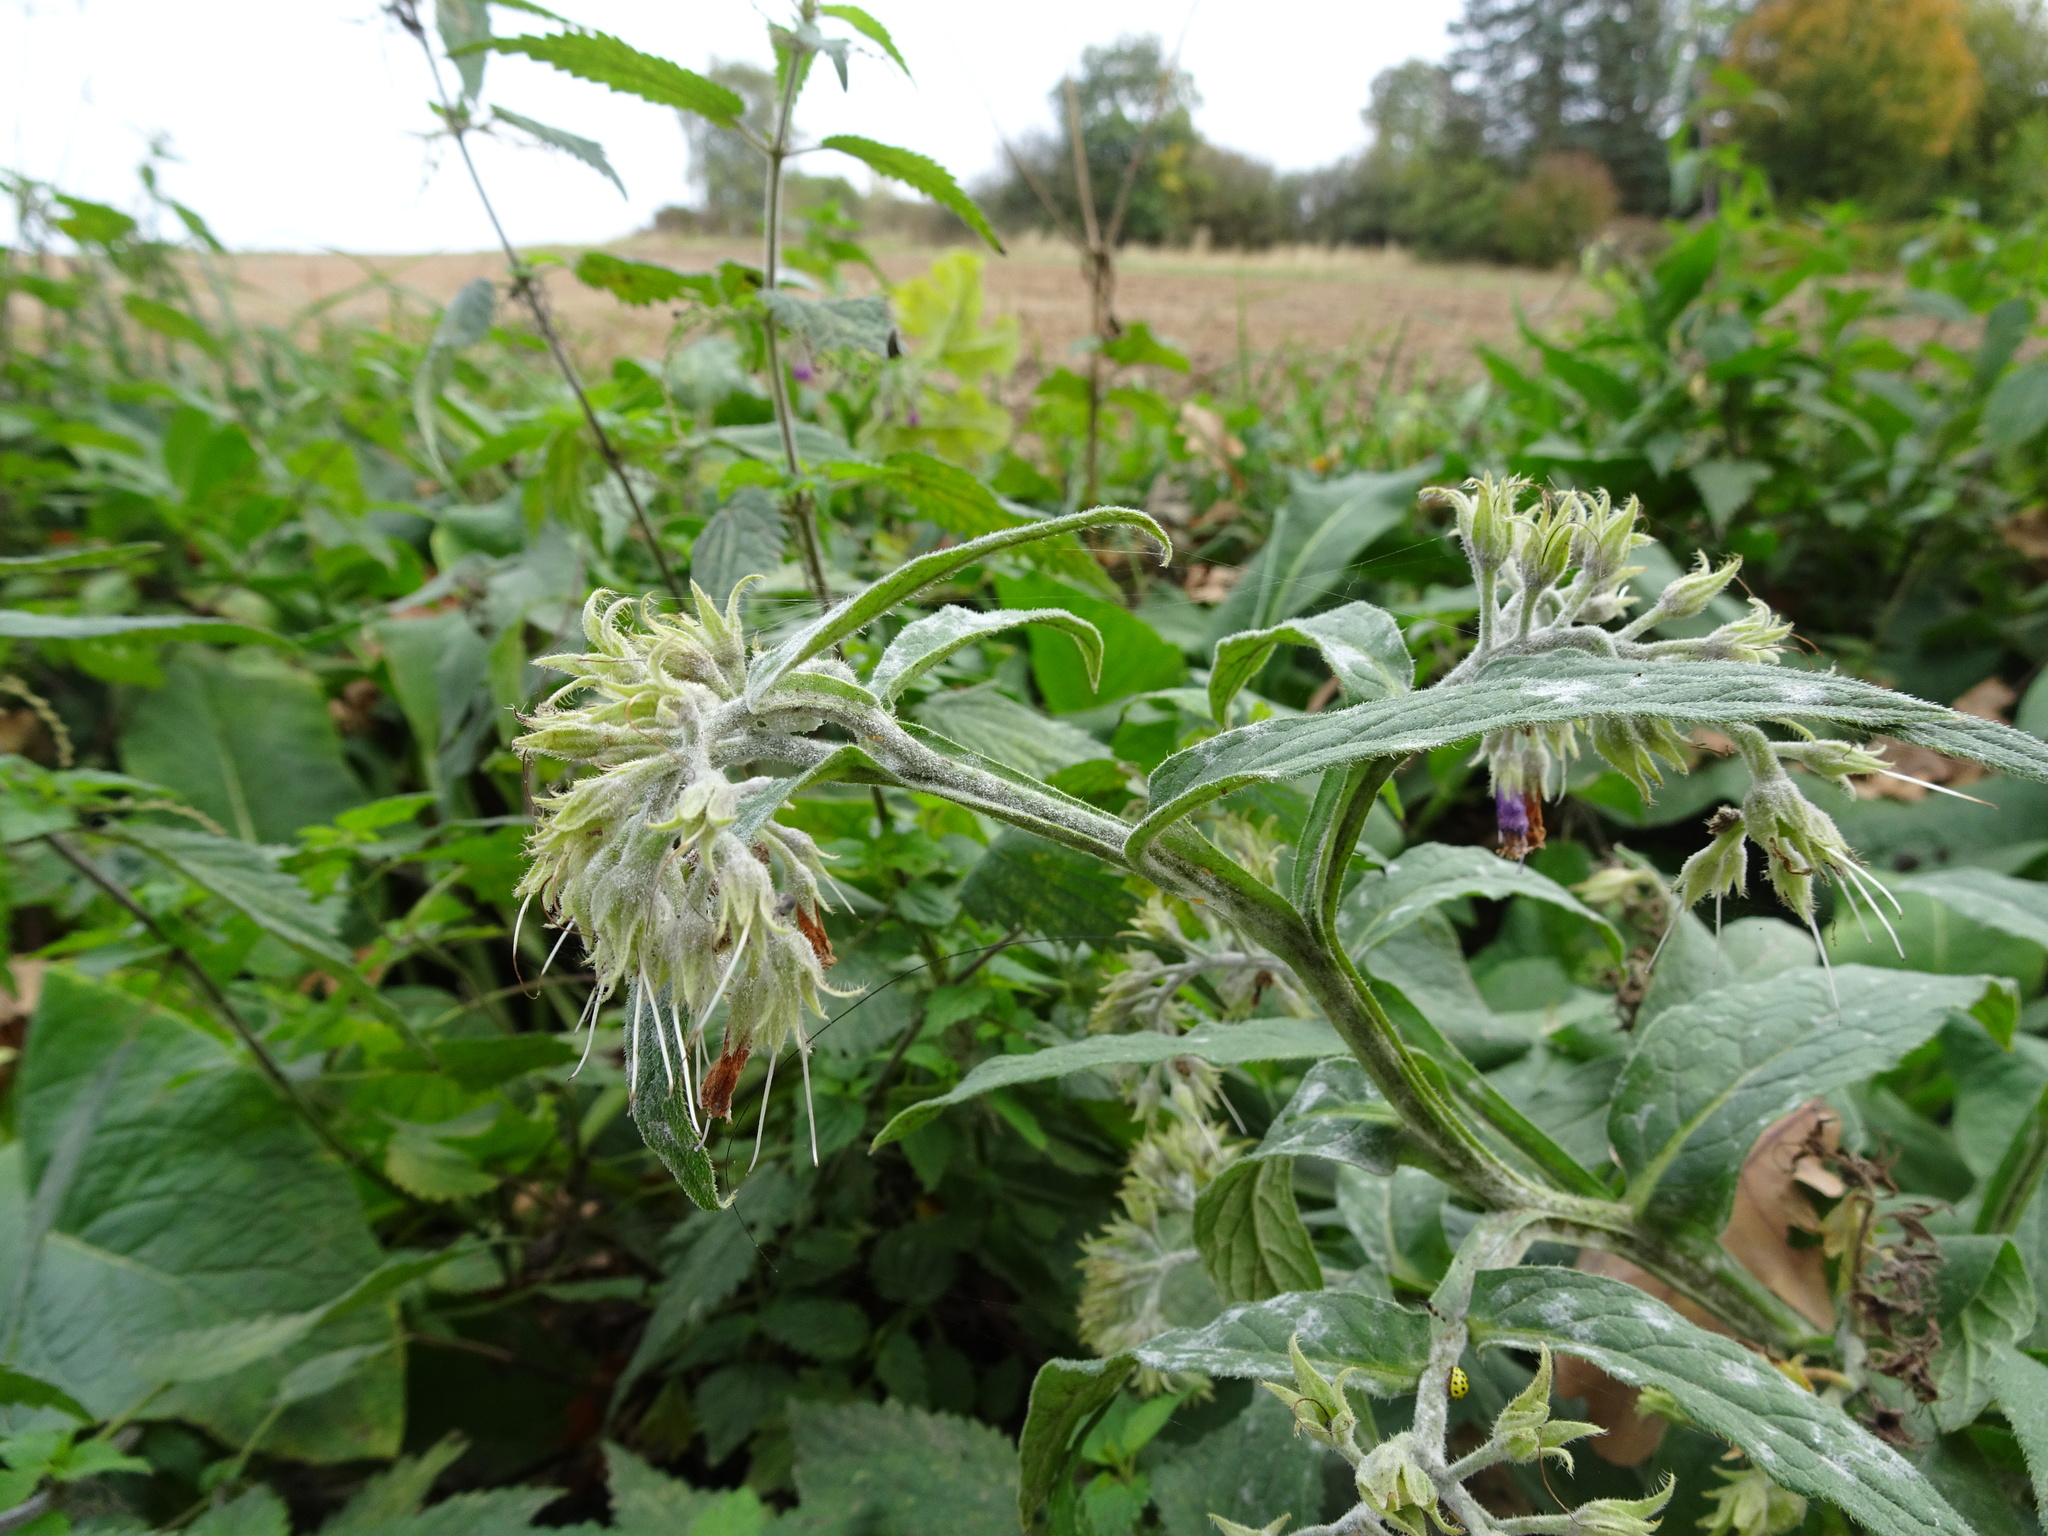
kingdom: Plantae
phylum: Tracheophyta
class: Magnoliopsida
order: Boraginales
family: Boraginaceae
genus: Symphytum
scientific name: Symphytum officinale
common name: Common comfrey
